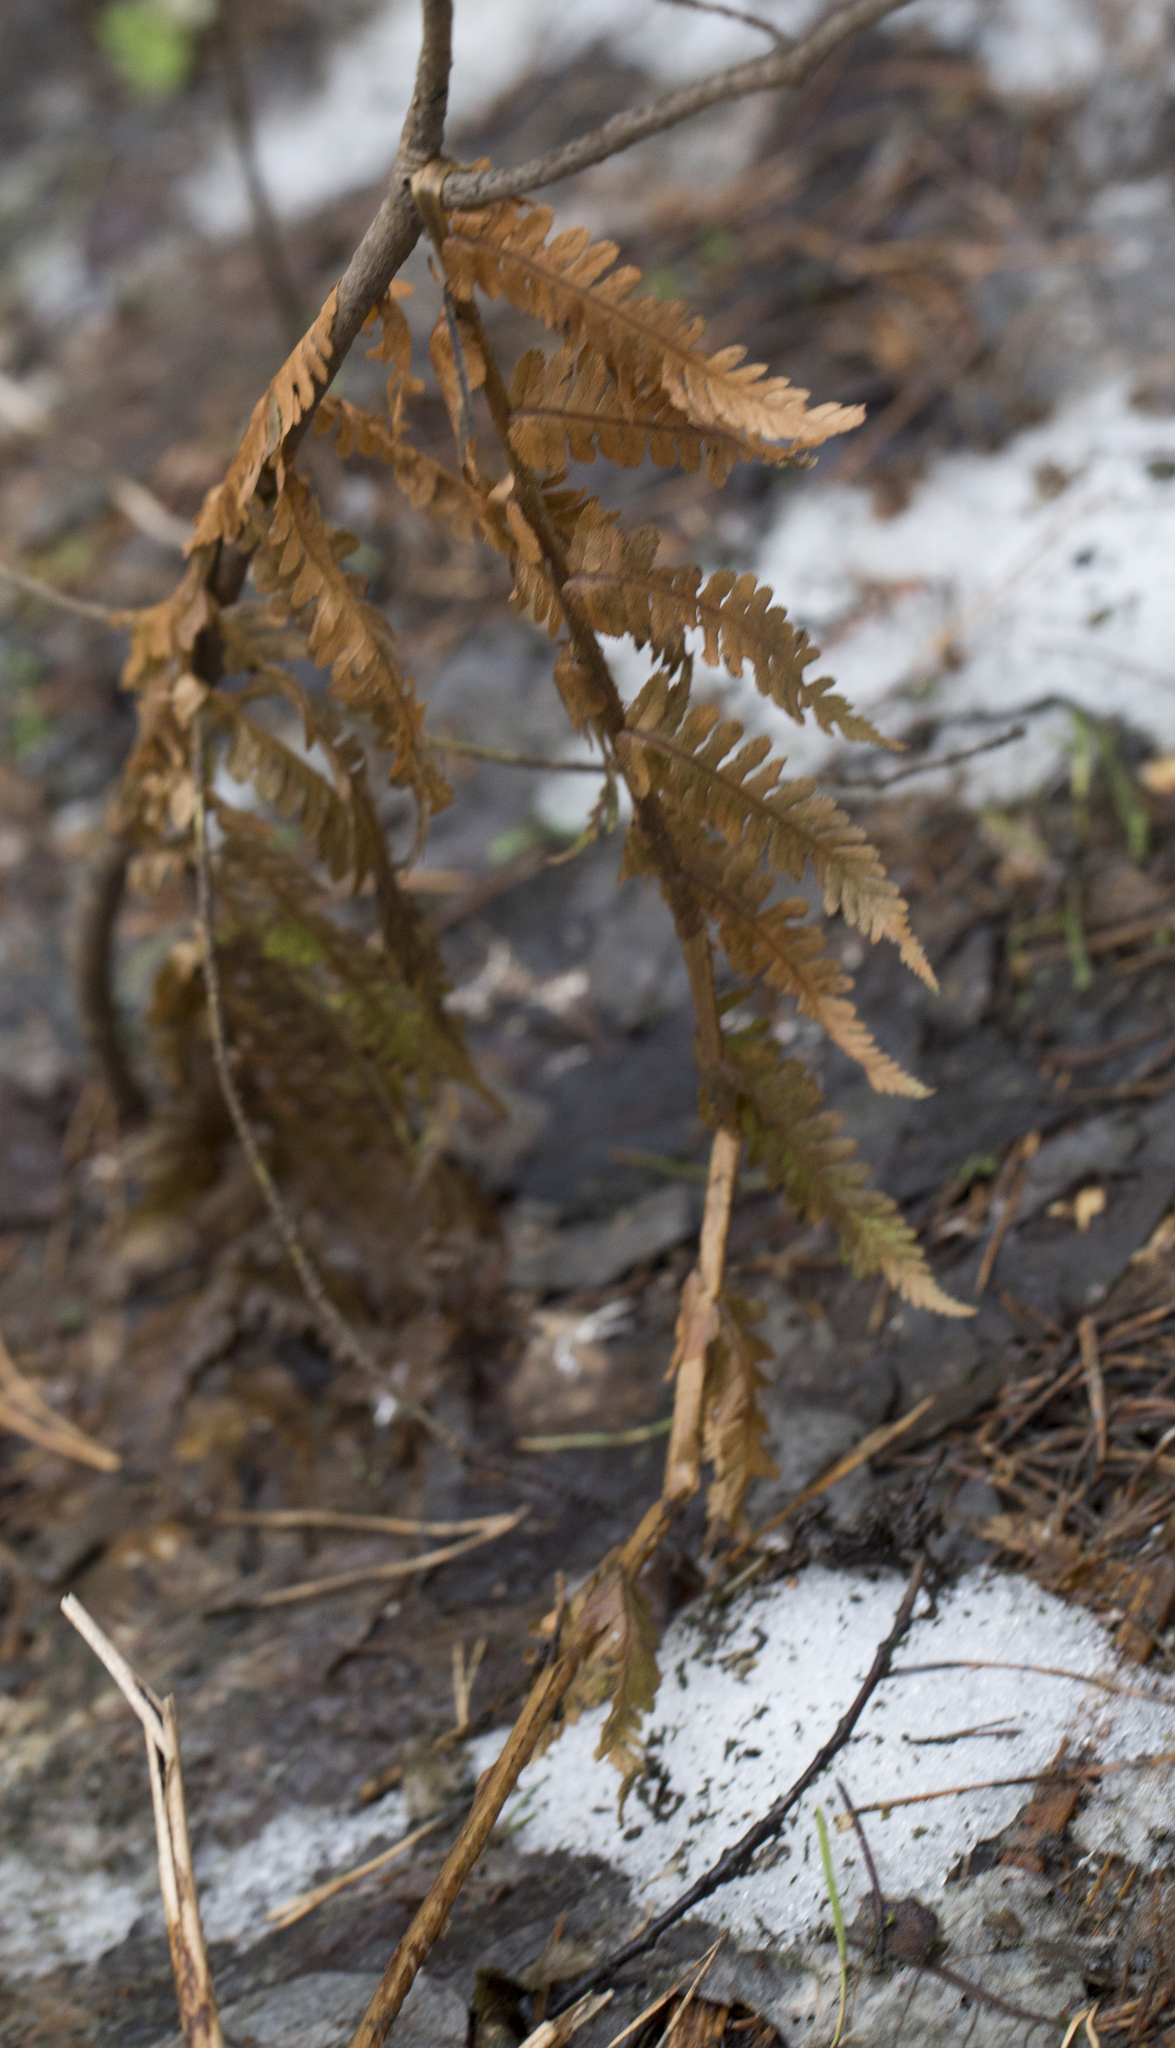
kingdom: Plantae
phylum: Tracheophyta
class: Polypodiopsida
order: Polypodiales
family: Dryopteridaceae
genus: Dryopteris
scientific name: Dryopteris filix-mas
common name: Male fern
